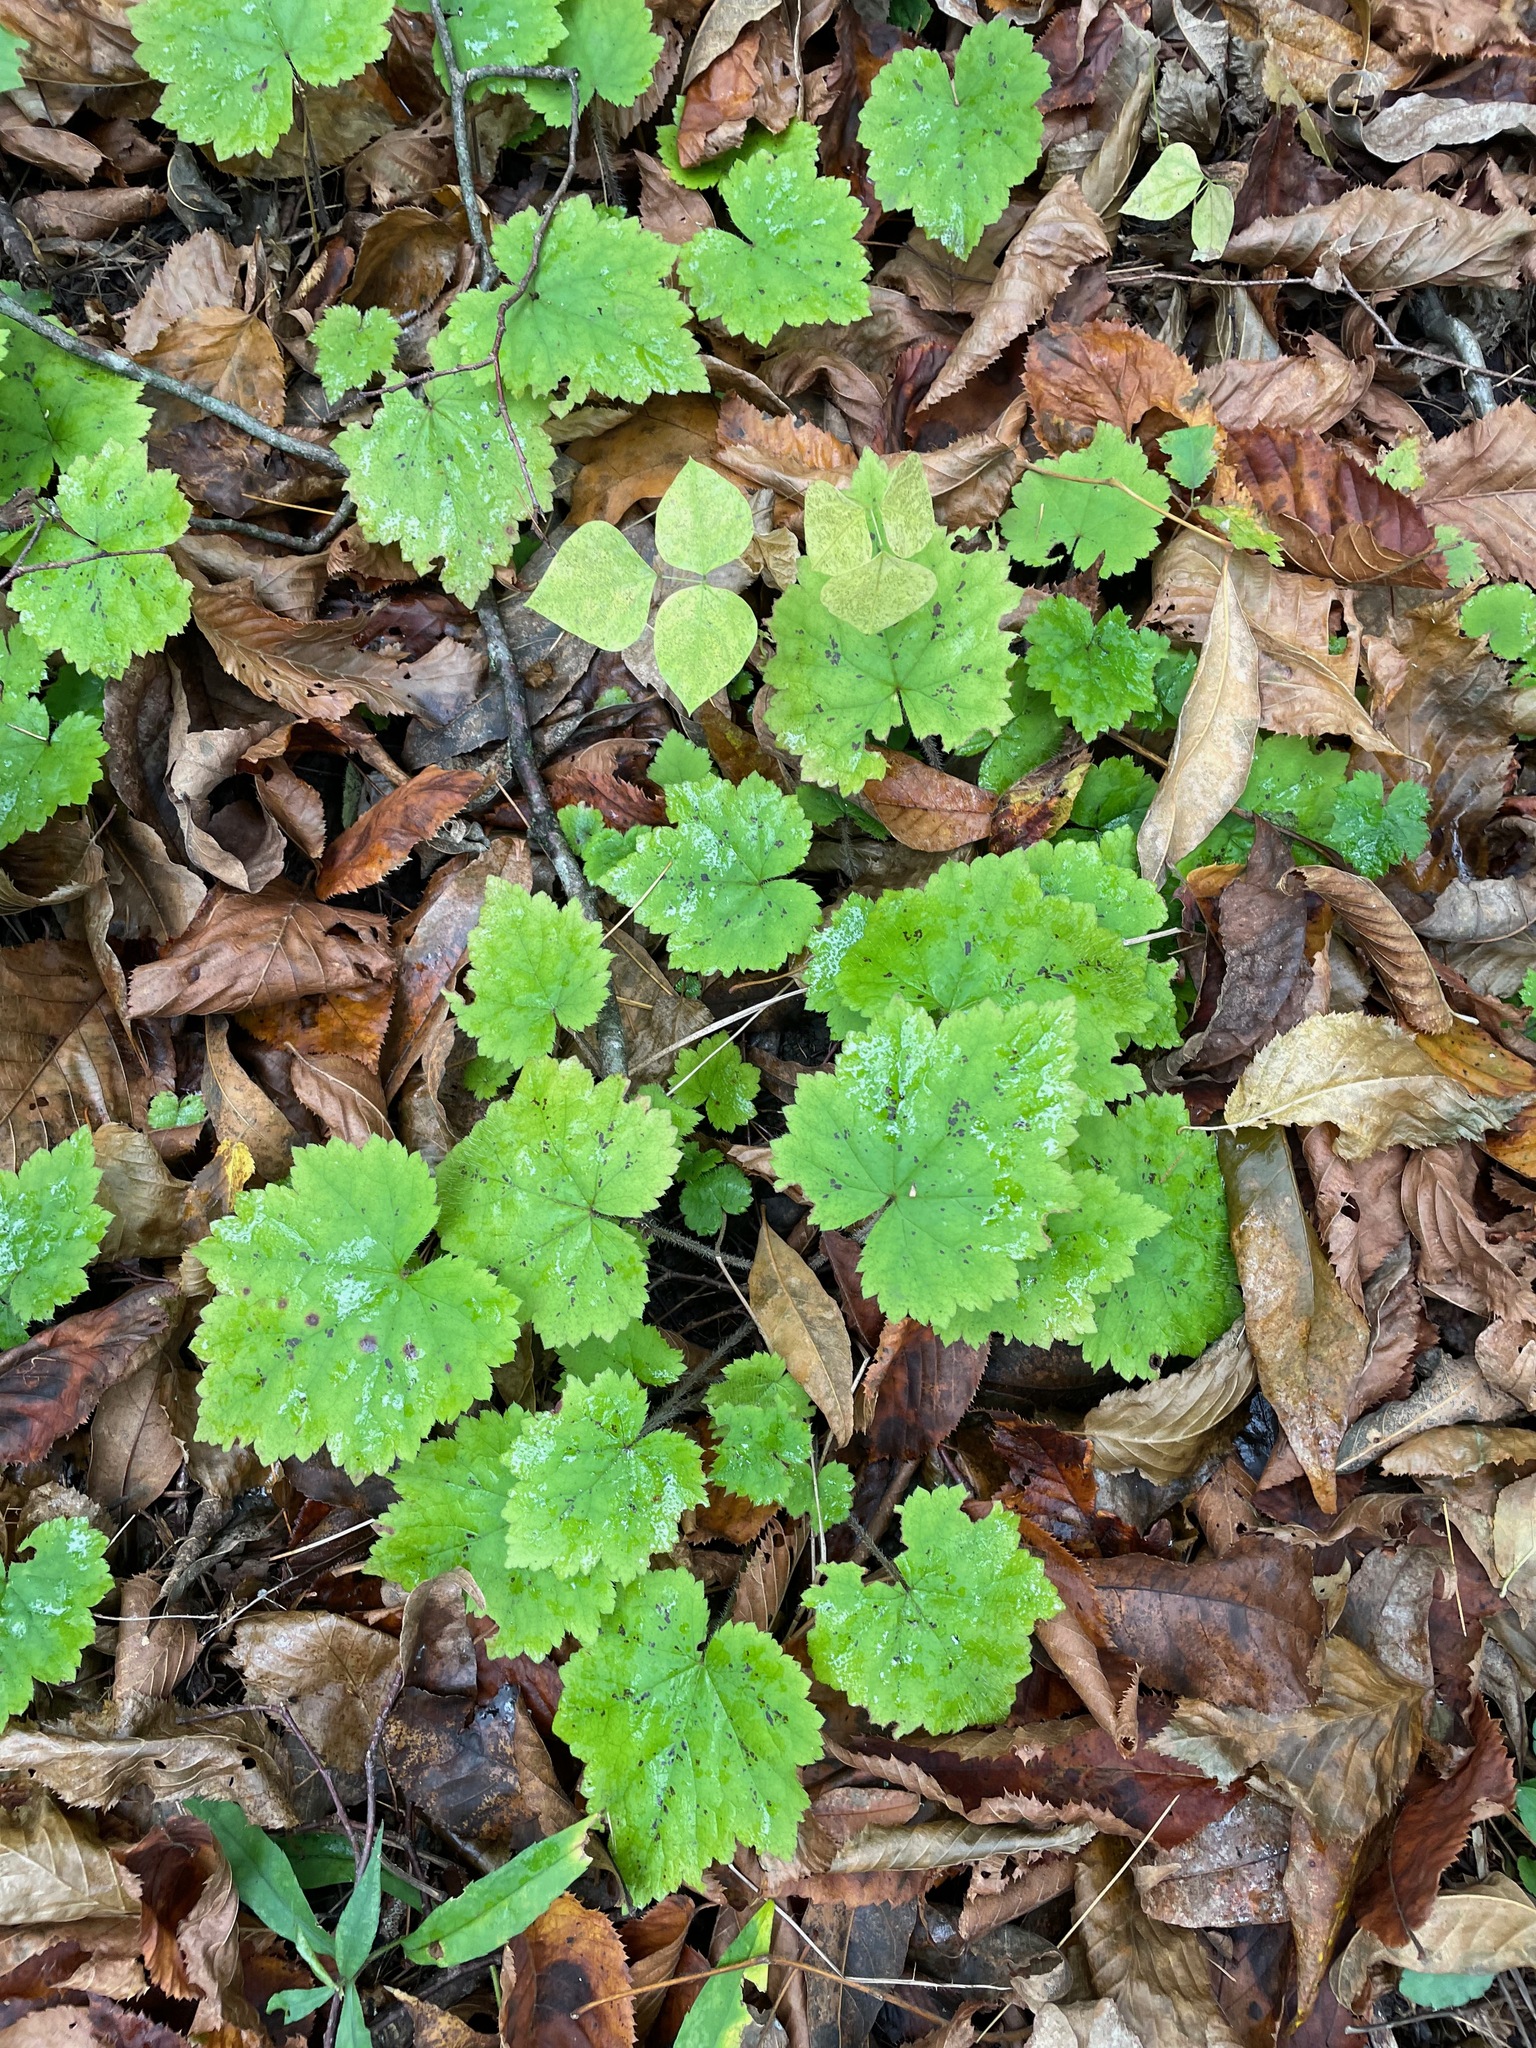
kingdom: Plantae
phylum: Tracheophyta
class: Magnoliopsida
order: Saxifragales
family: Saxifragaceae
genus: Tiarella
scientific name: Tiarella stolonifera
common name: Stoloniferous foamflower
